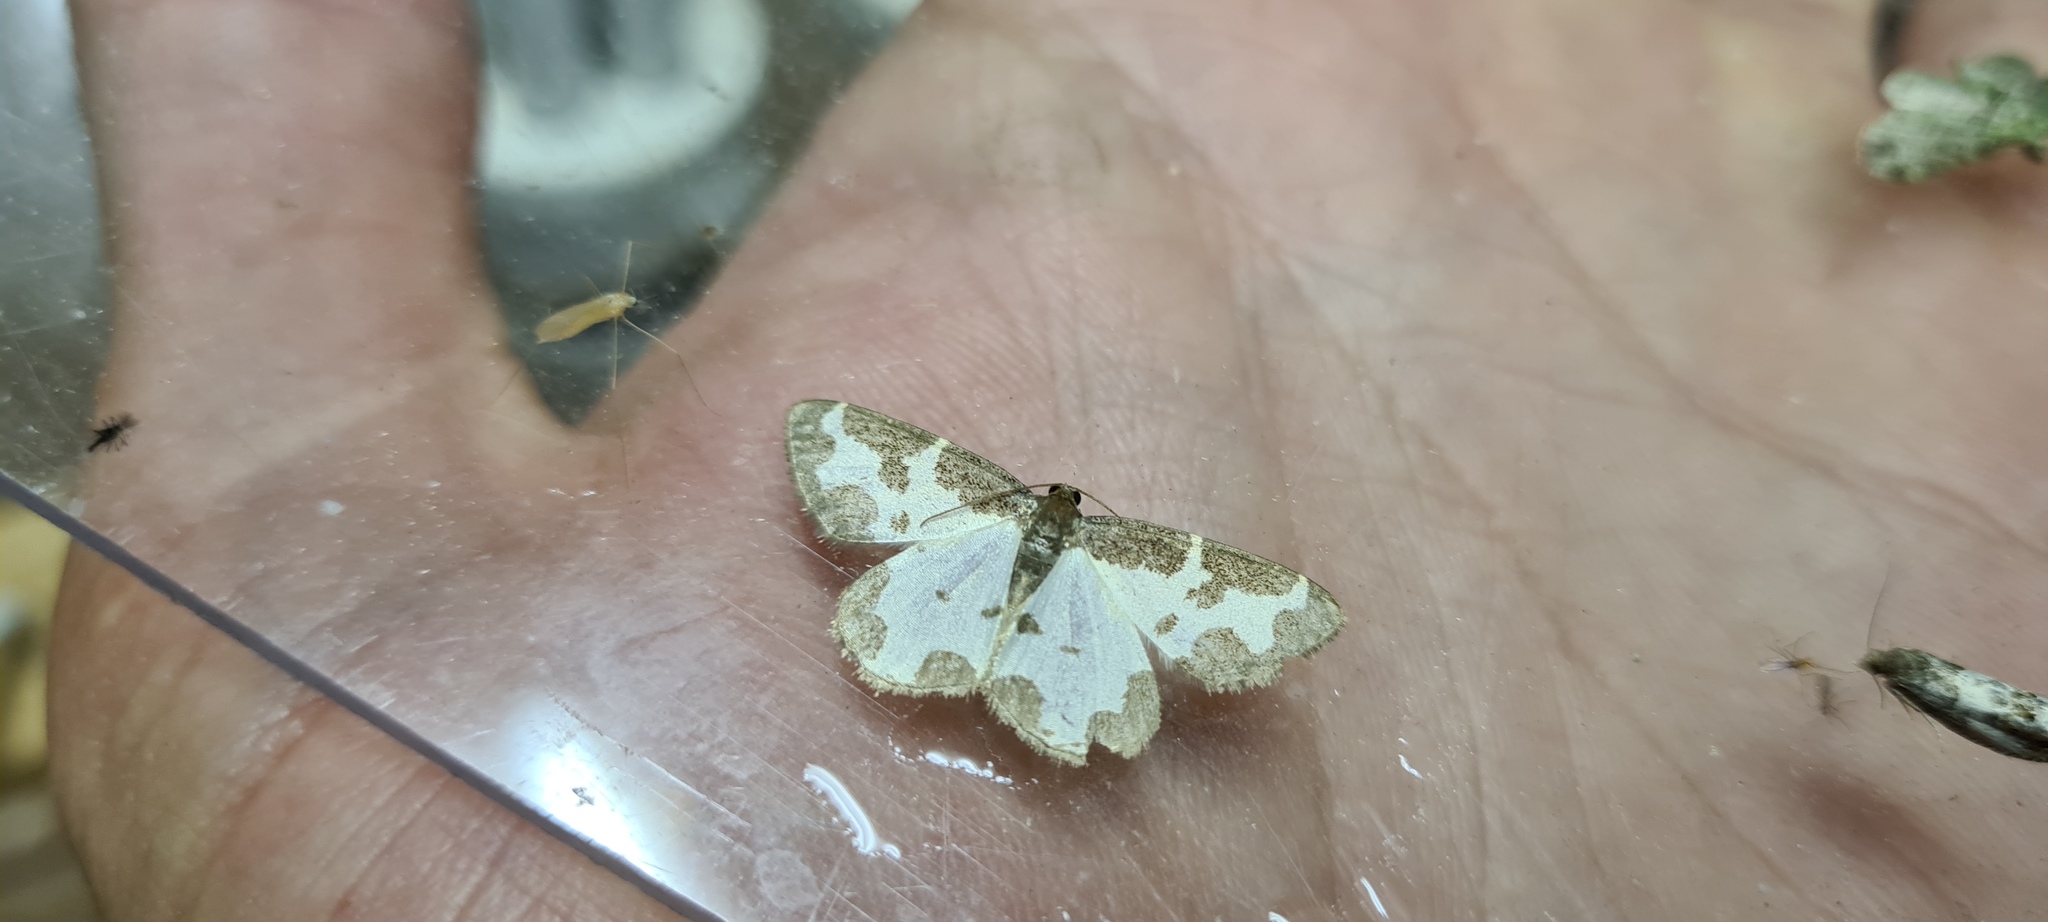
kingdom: Animalia
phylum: Arthropoda
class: Insecta
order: Lepidoptera
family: Geometridae
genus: Lomaspilis
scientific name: Lomaspilis marginata
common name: Clouded border
